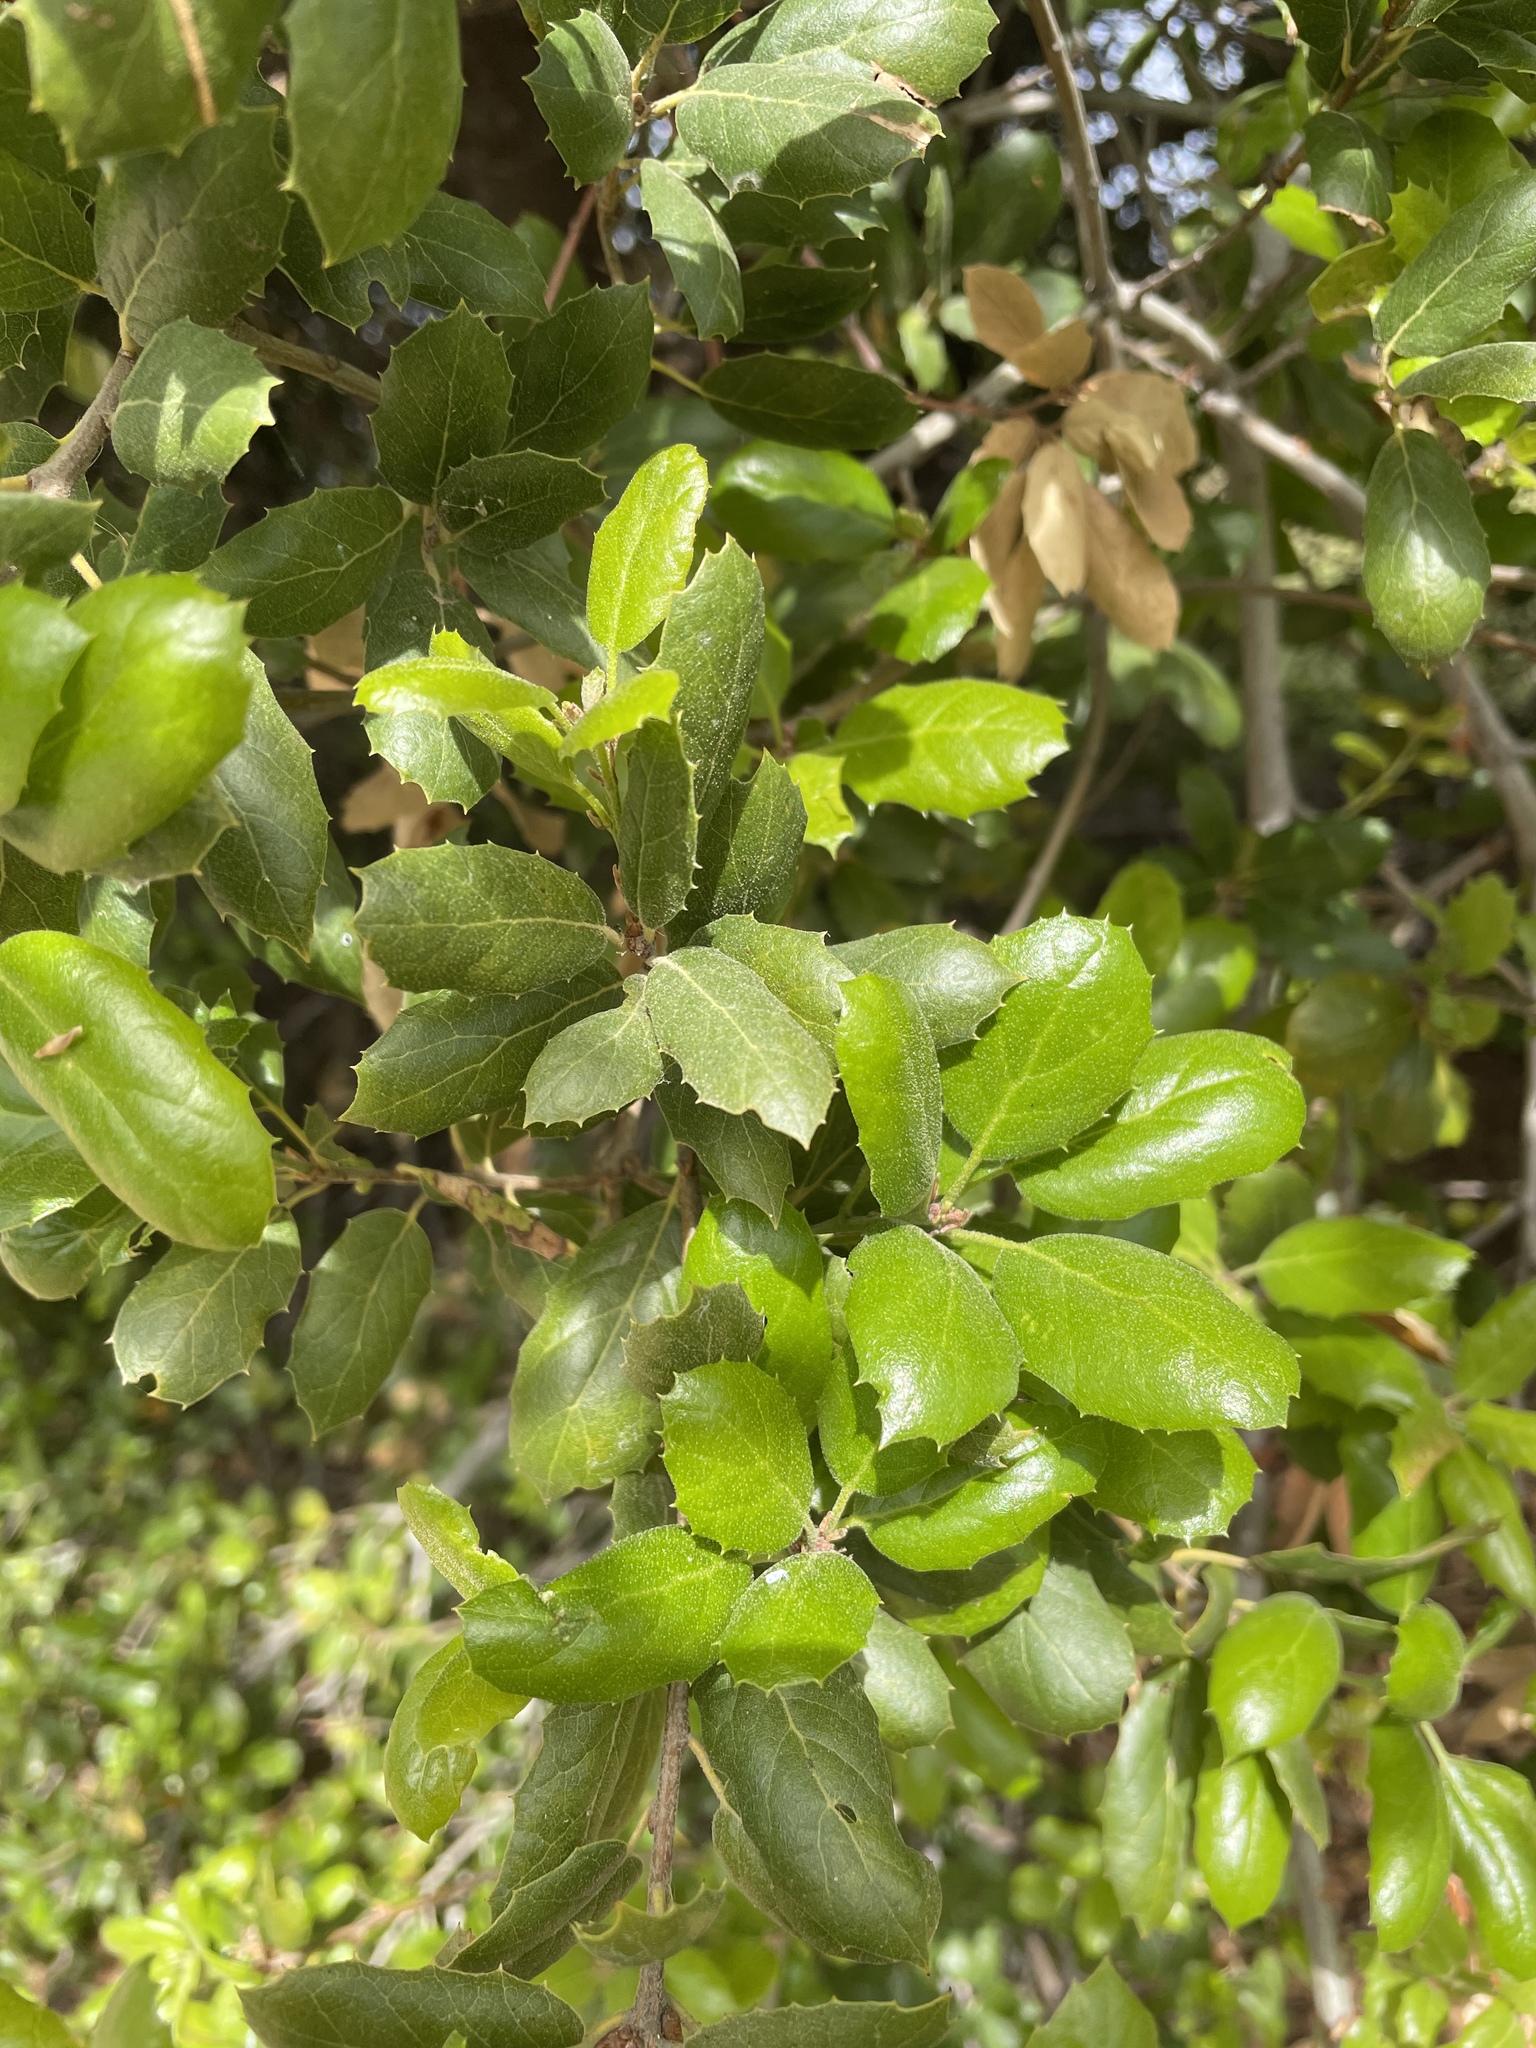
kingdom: Plantae
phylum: Tracheophyta
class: Magnoliopsida
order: Fagales
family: Fagaceae
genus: Quercus
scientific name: Quercus agrifolia
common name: California live oak
